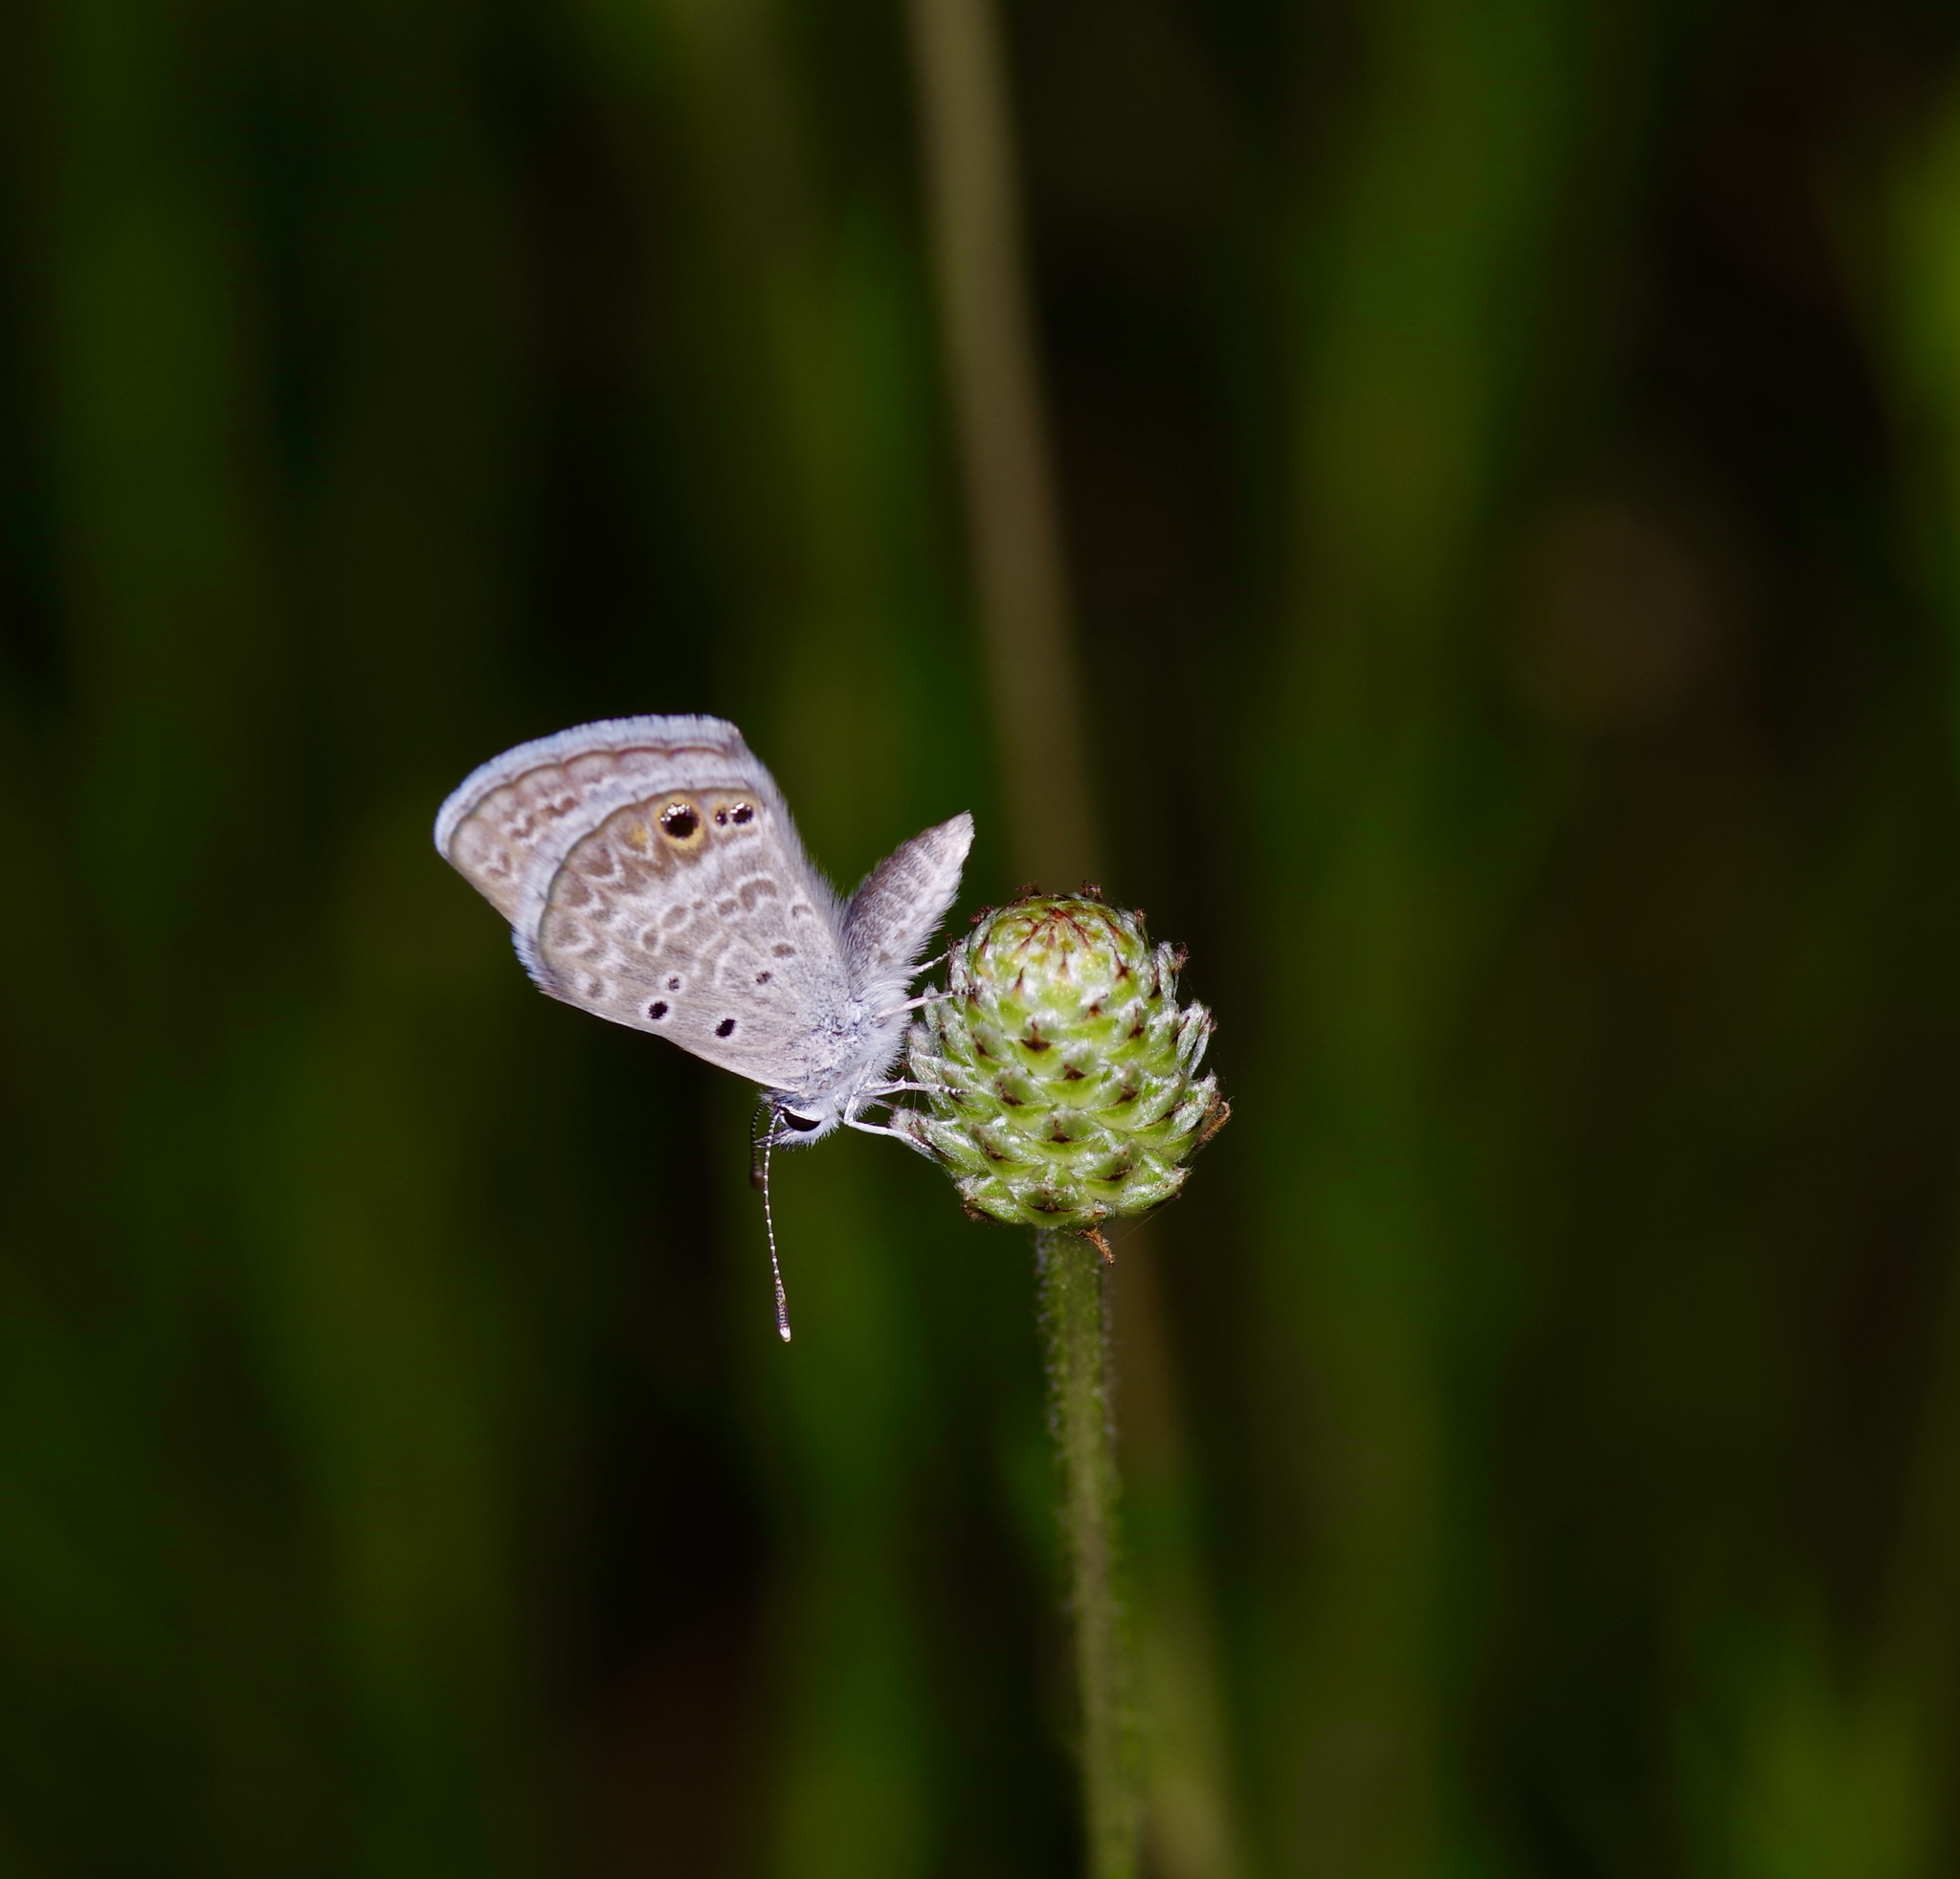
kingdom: Animalia
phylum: Arthropoda
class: Insecta
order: Lepidoptera
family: Lycaenidae
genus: Echinargus
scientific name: Echinargus isola
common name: Reakirt's blue
